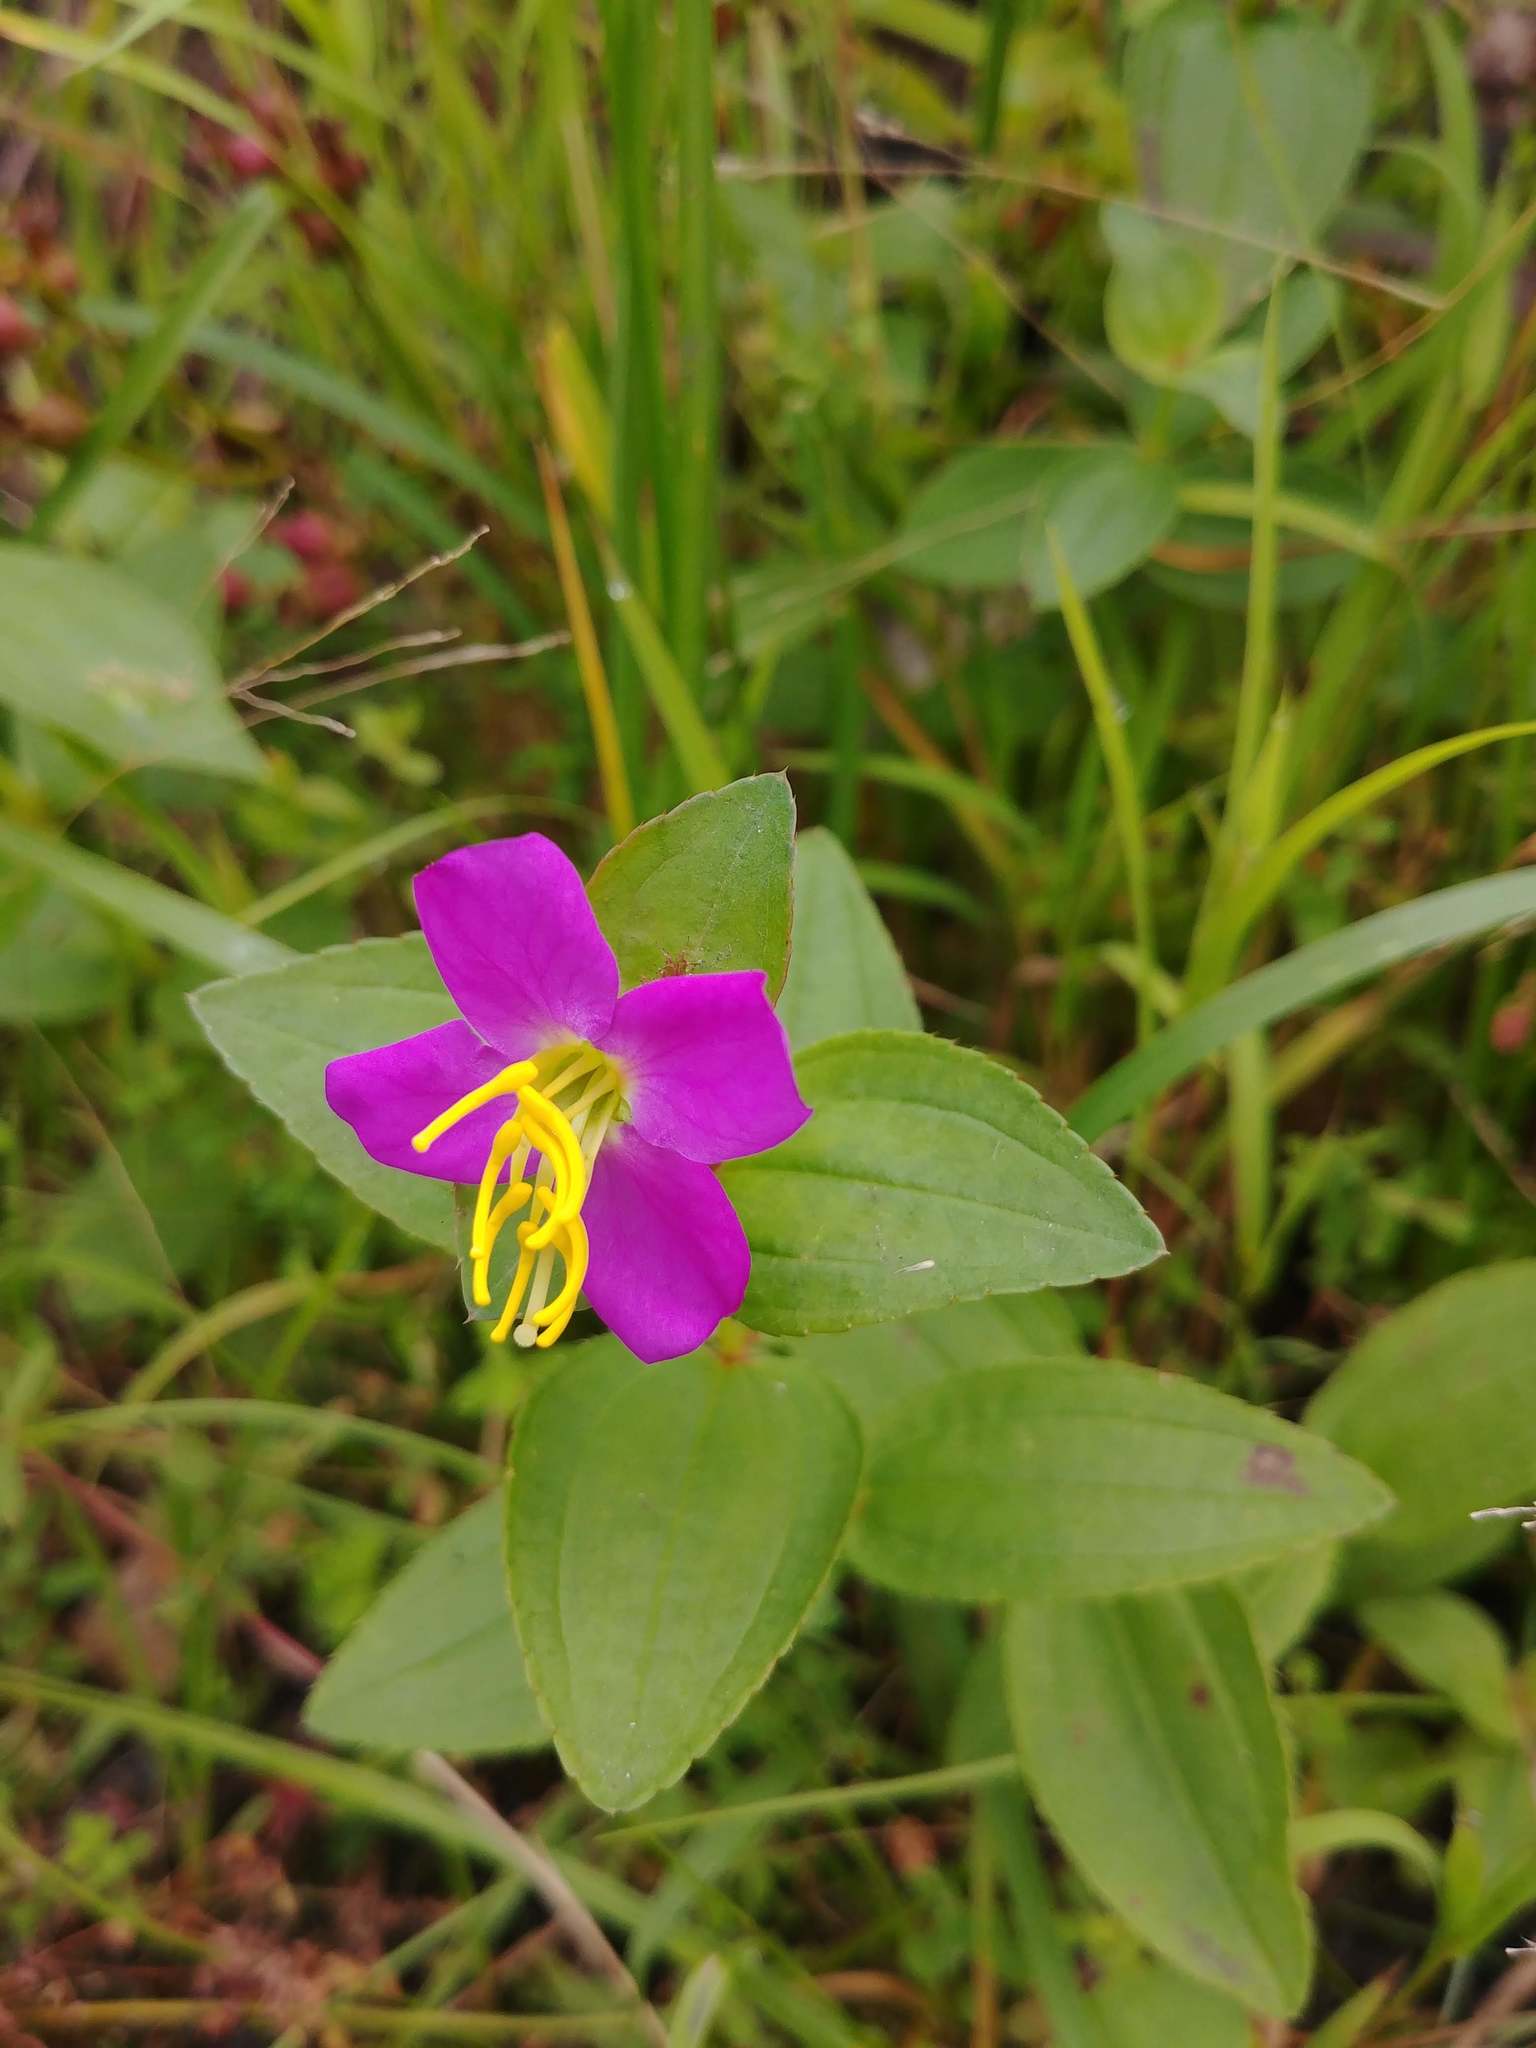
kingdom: Plantae
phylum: Tracheophyta
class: Magnoliopsida
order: Myrtales
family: Melastomataceae
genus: Rhexia
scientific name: Rhexia virginica
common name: Common meadow beauty
